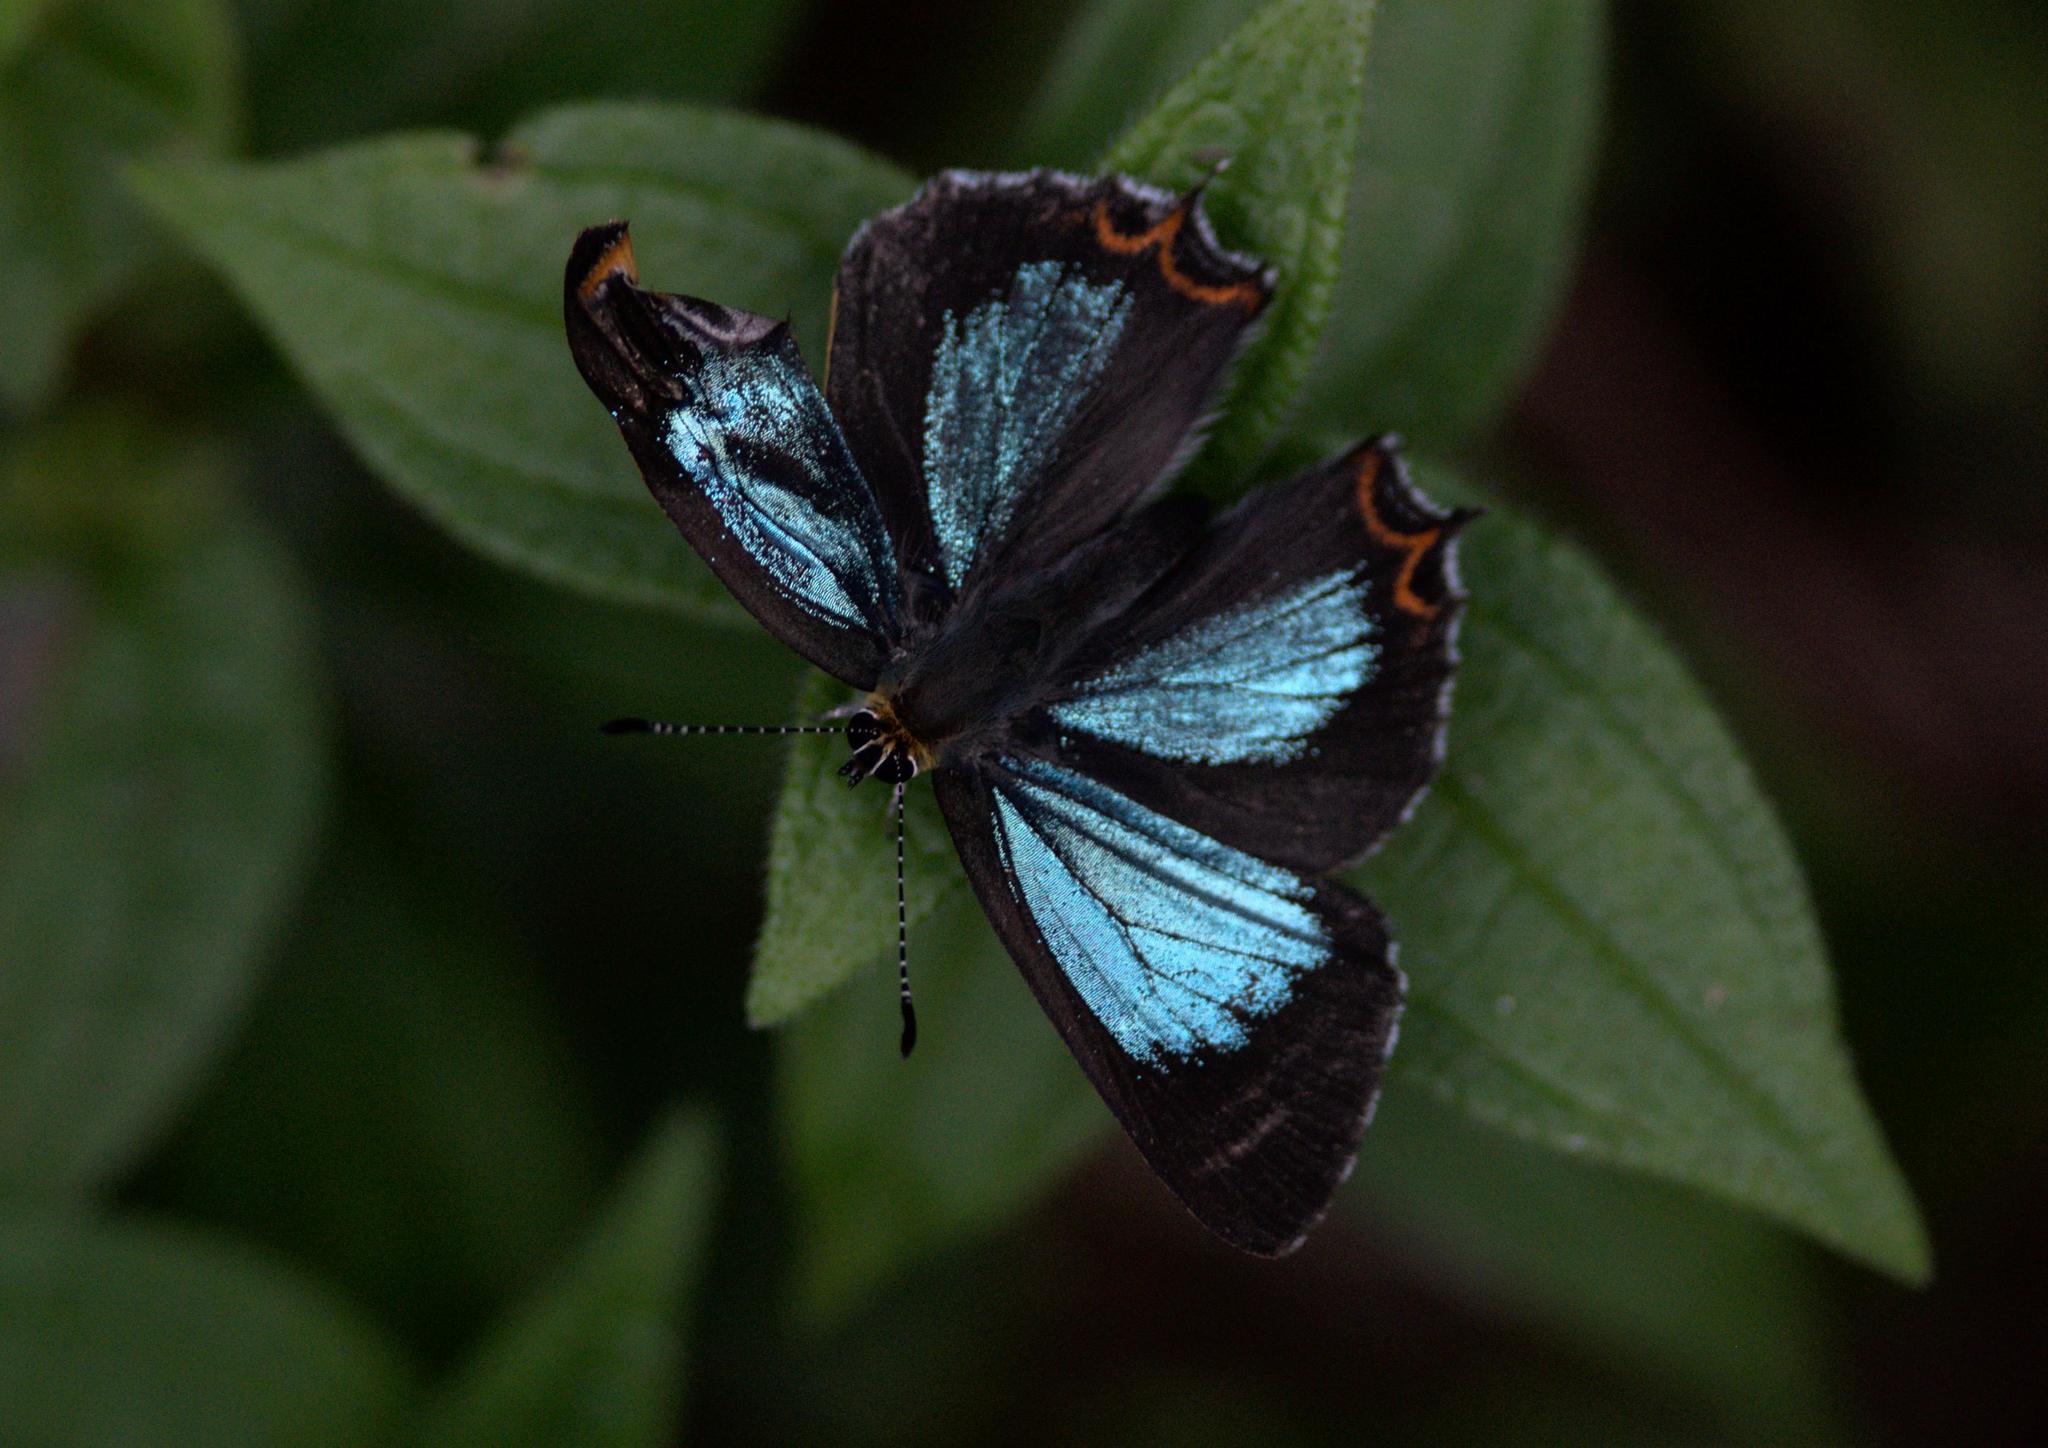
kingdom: Animalia
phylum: Arthropoda
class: Insecta
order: Lepidoptera
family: Lycaenidae
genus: Heliophorus
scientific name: Heliophorus
